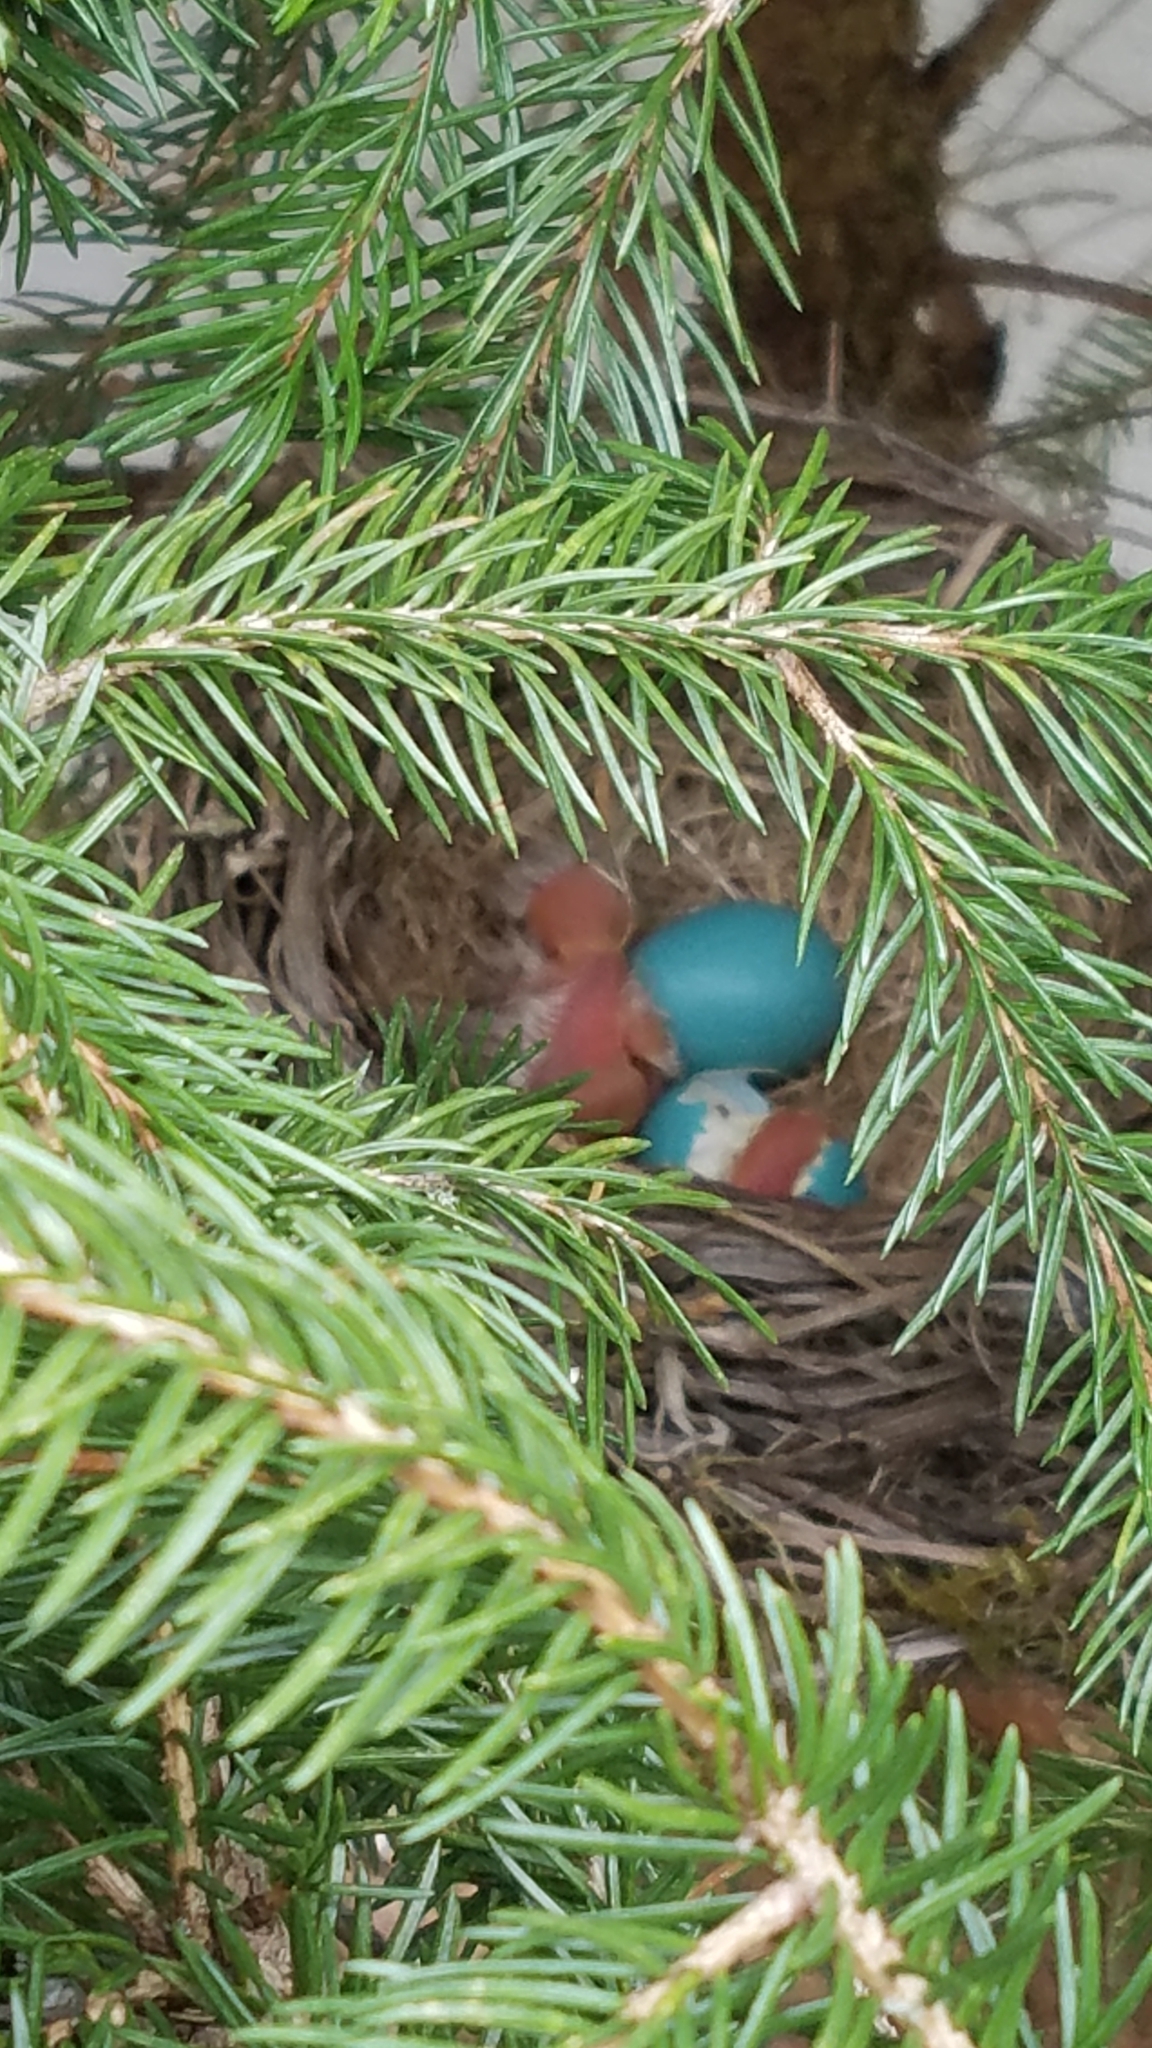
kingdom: Animalia
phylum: Chordata
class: Aves
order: Passeriformes
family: Turdidae
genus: Turdus
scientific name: Turdus migratorius
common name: American robin
